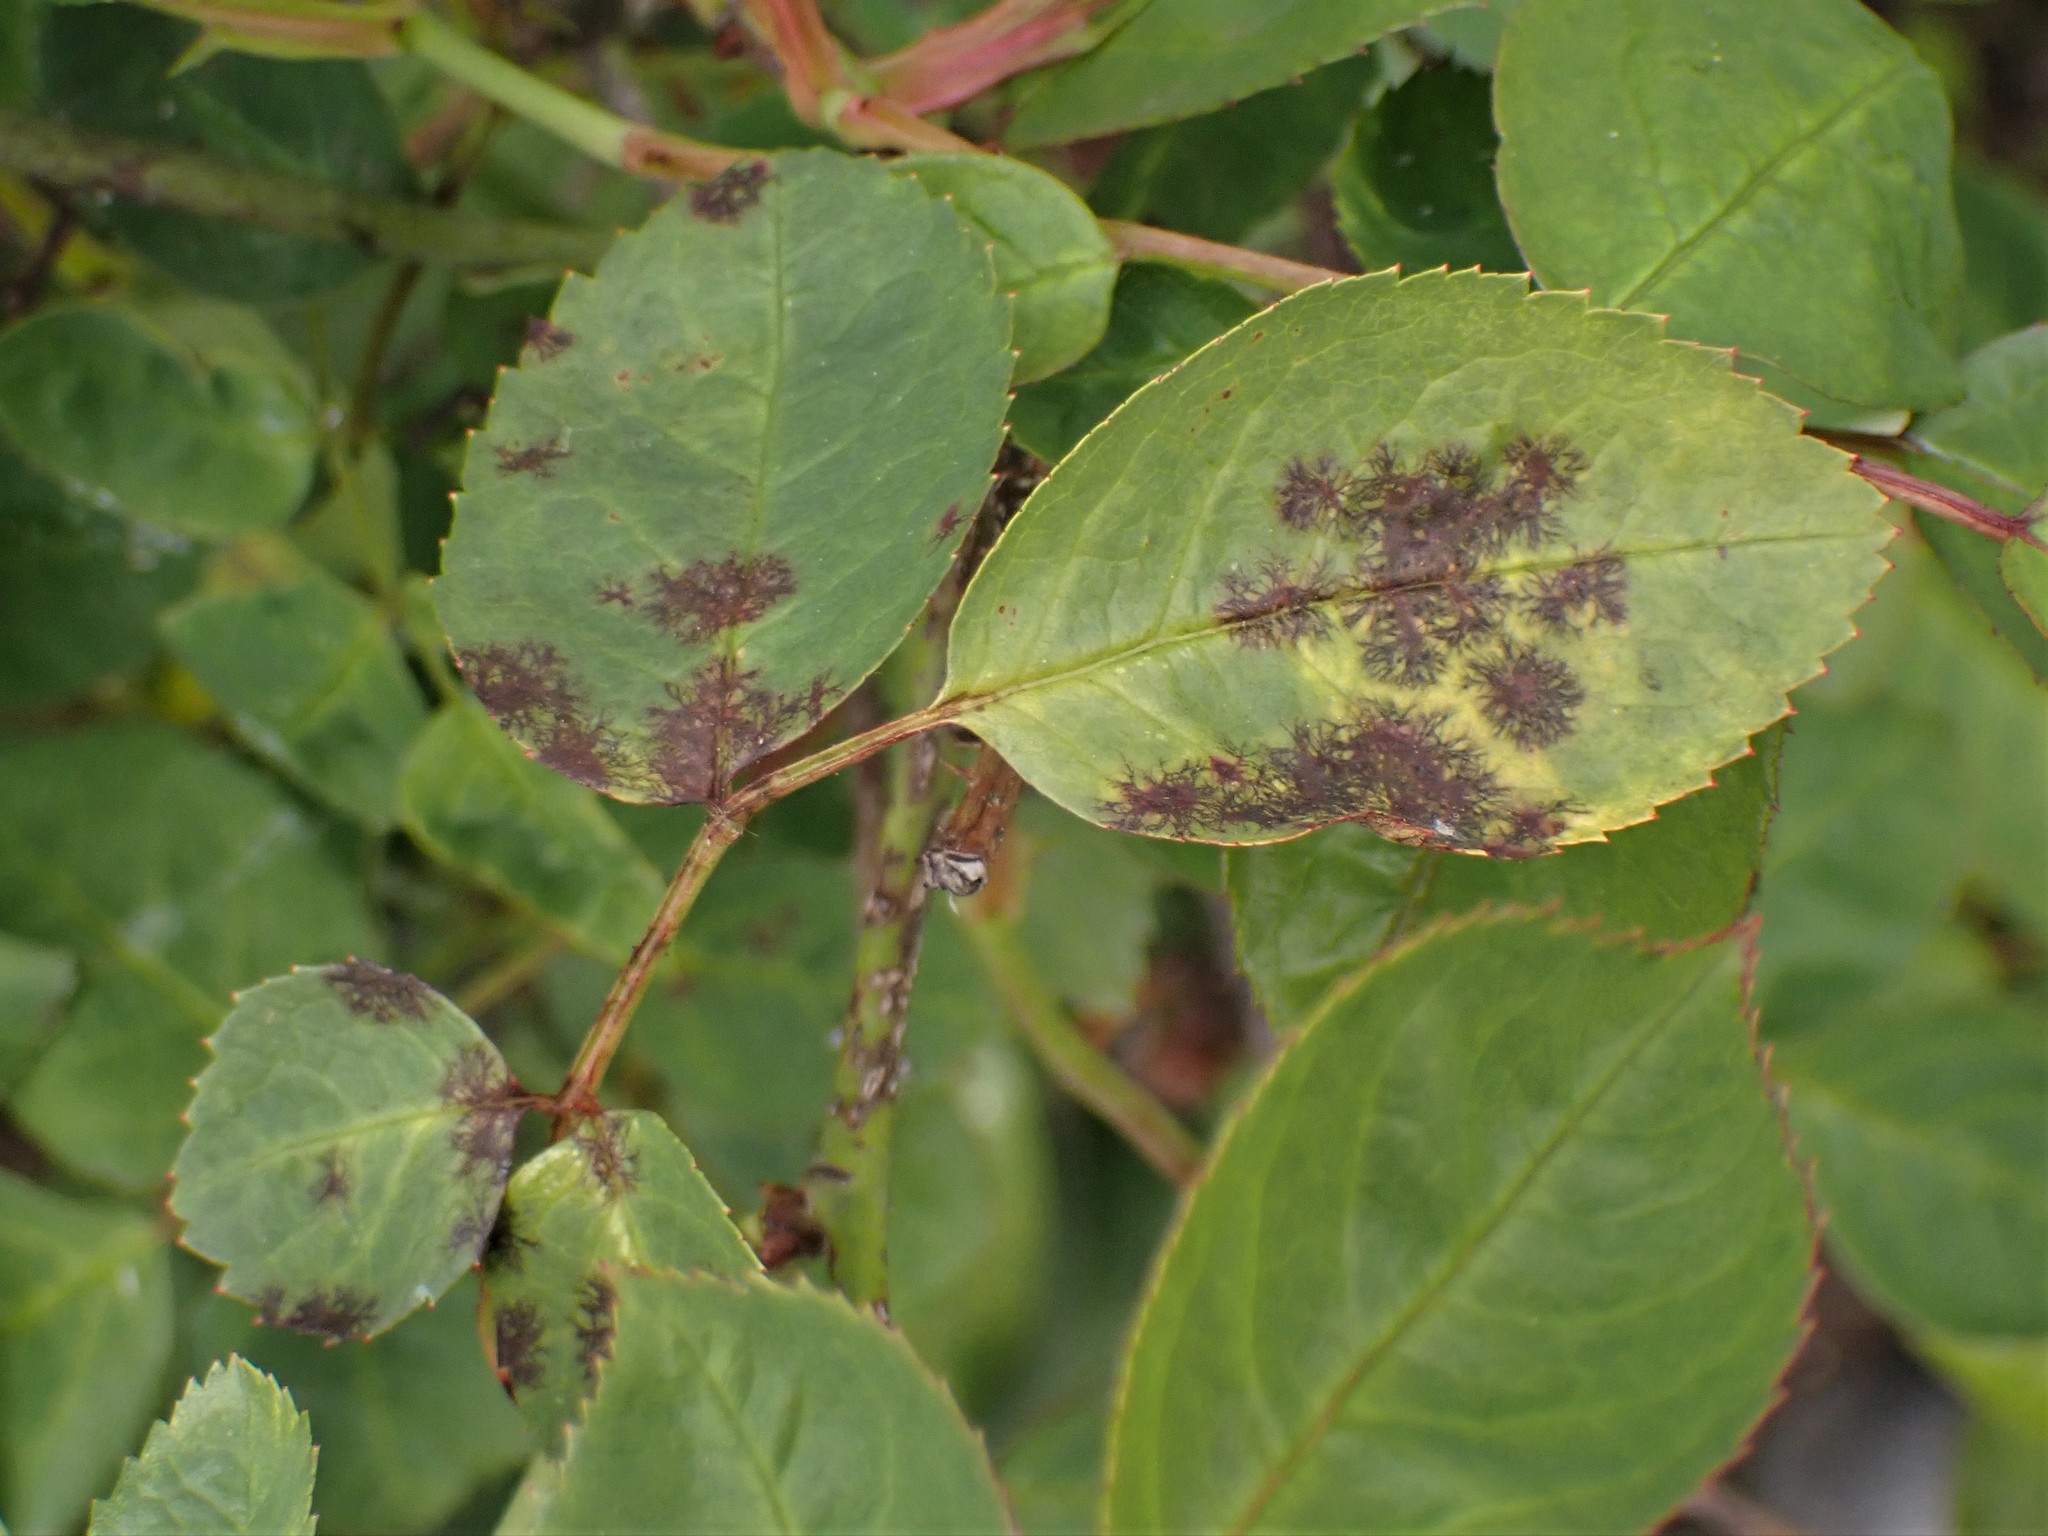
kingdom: Fungi
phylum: Ascomycota
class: Leotiomycetes
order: Helotiales
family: Drepanopezizaceae
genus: Diplocarpon
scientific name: Diplocarpon rosae
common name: Rose black-spot
